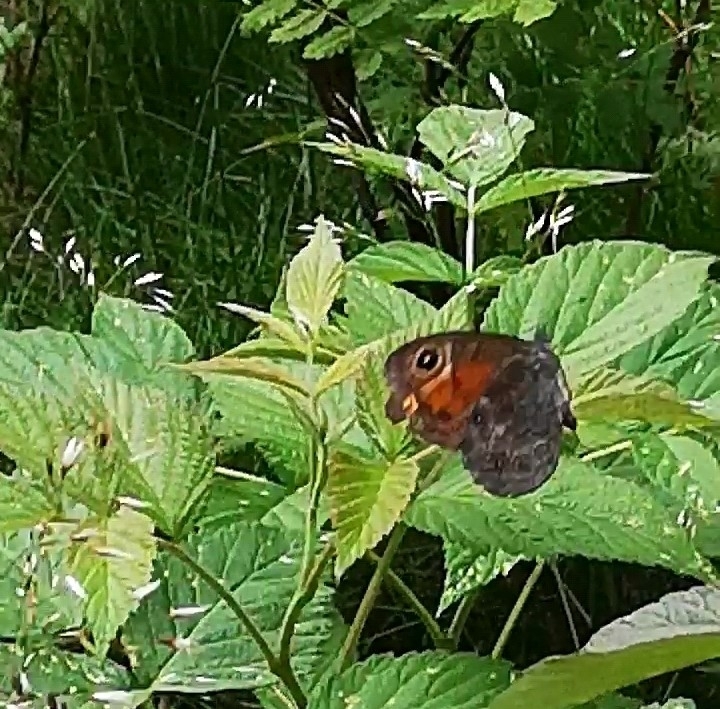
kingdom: Animalia
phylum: Arthropoda
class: Insecta
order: Lepidoptera
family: Nymphalidae
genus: Pararge
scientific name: Pararge Lasiommata maera
